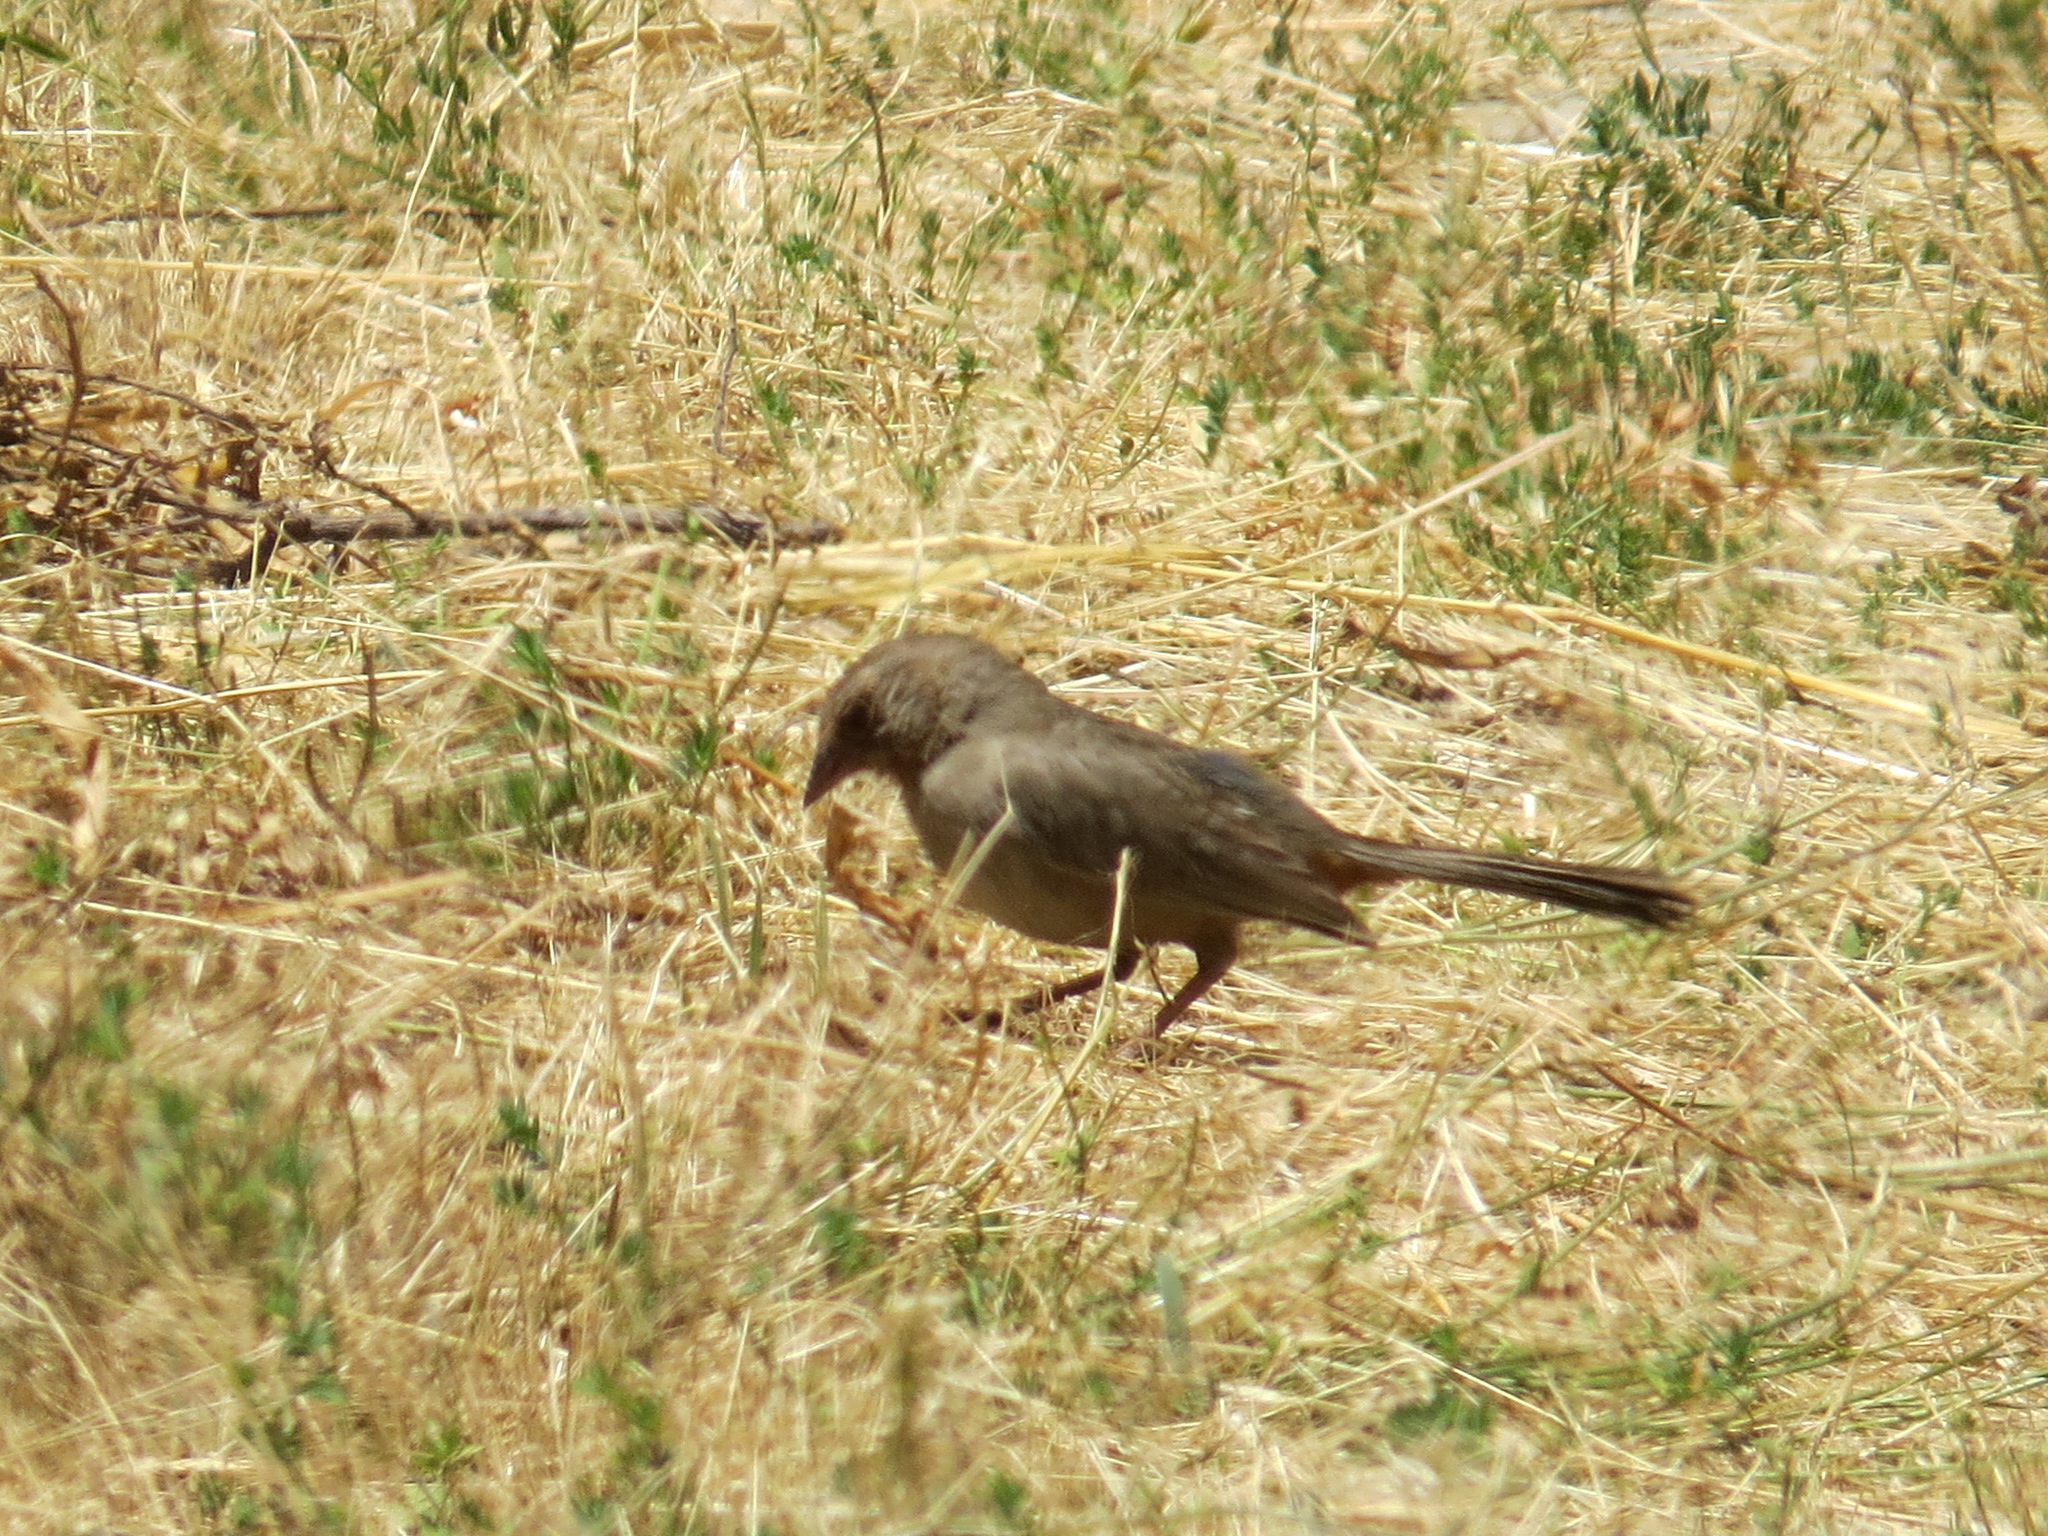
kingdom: Animalia
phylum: Chordata
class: Aves
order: Passeriformes
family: Passerellidae
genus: Melozone
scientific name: Melozone crissalis
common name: California towhee
